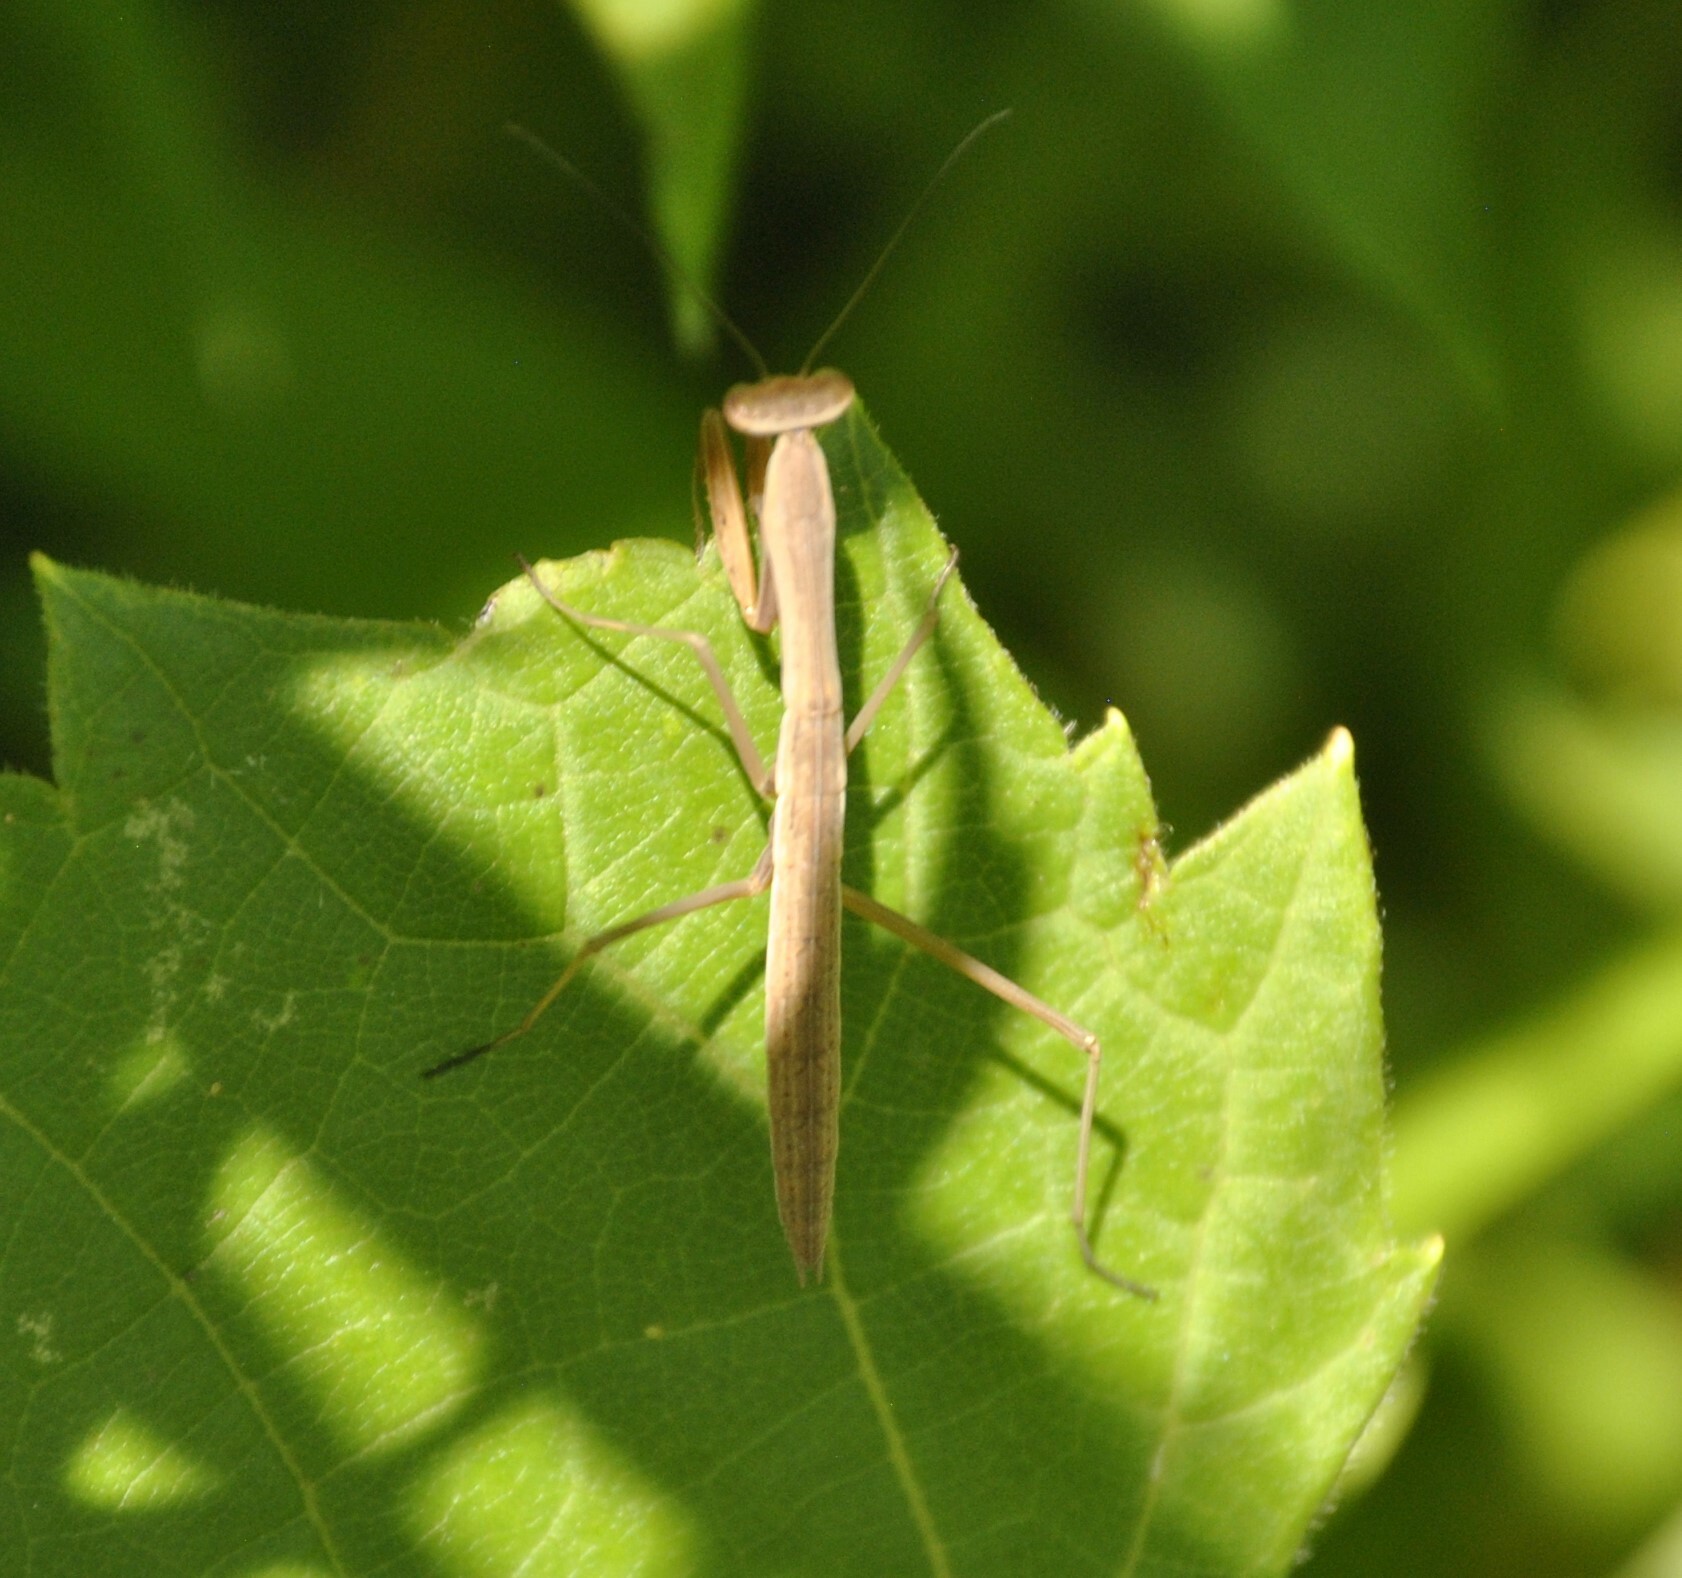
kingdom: Animalia
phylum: Arthropoda
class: Insecta
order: Mantodea
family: Mantidae
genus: Tenodera
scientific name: Tenodera sinensis
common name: Chinese mantis
